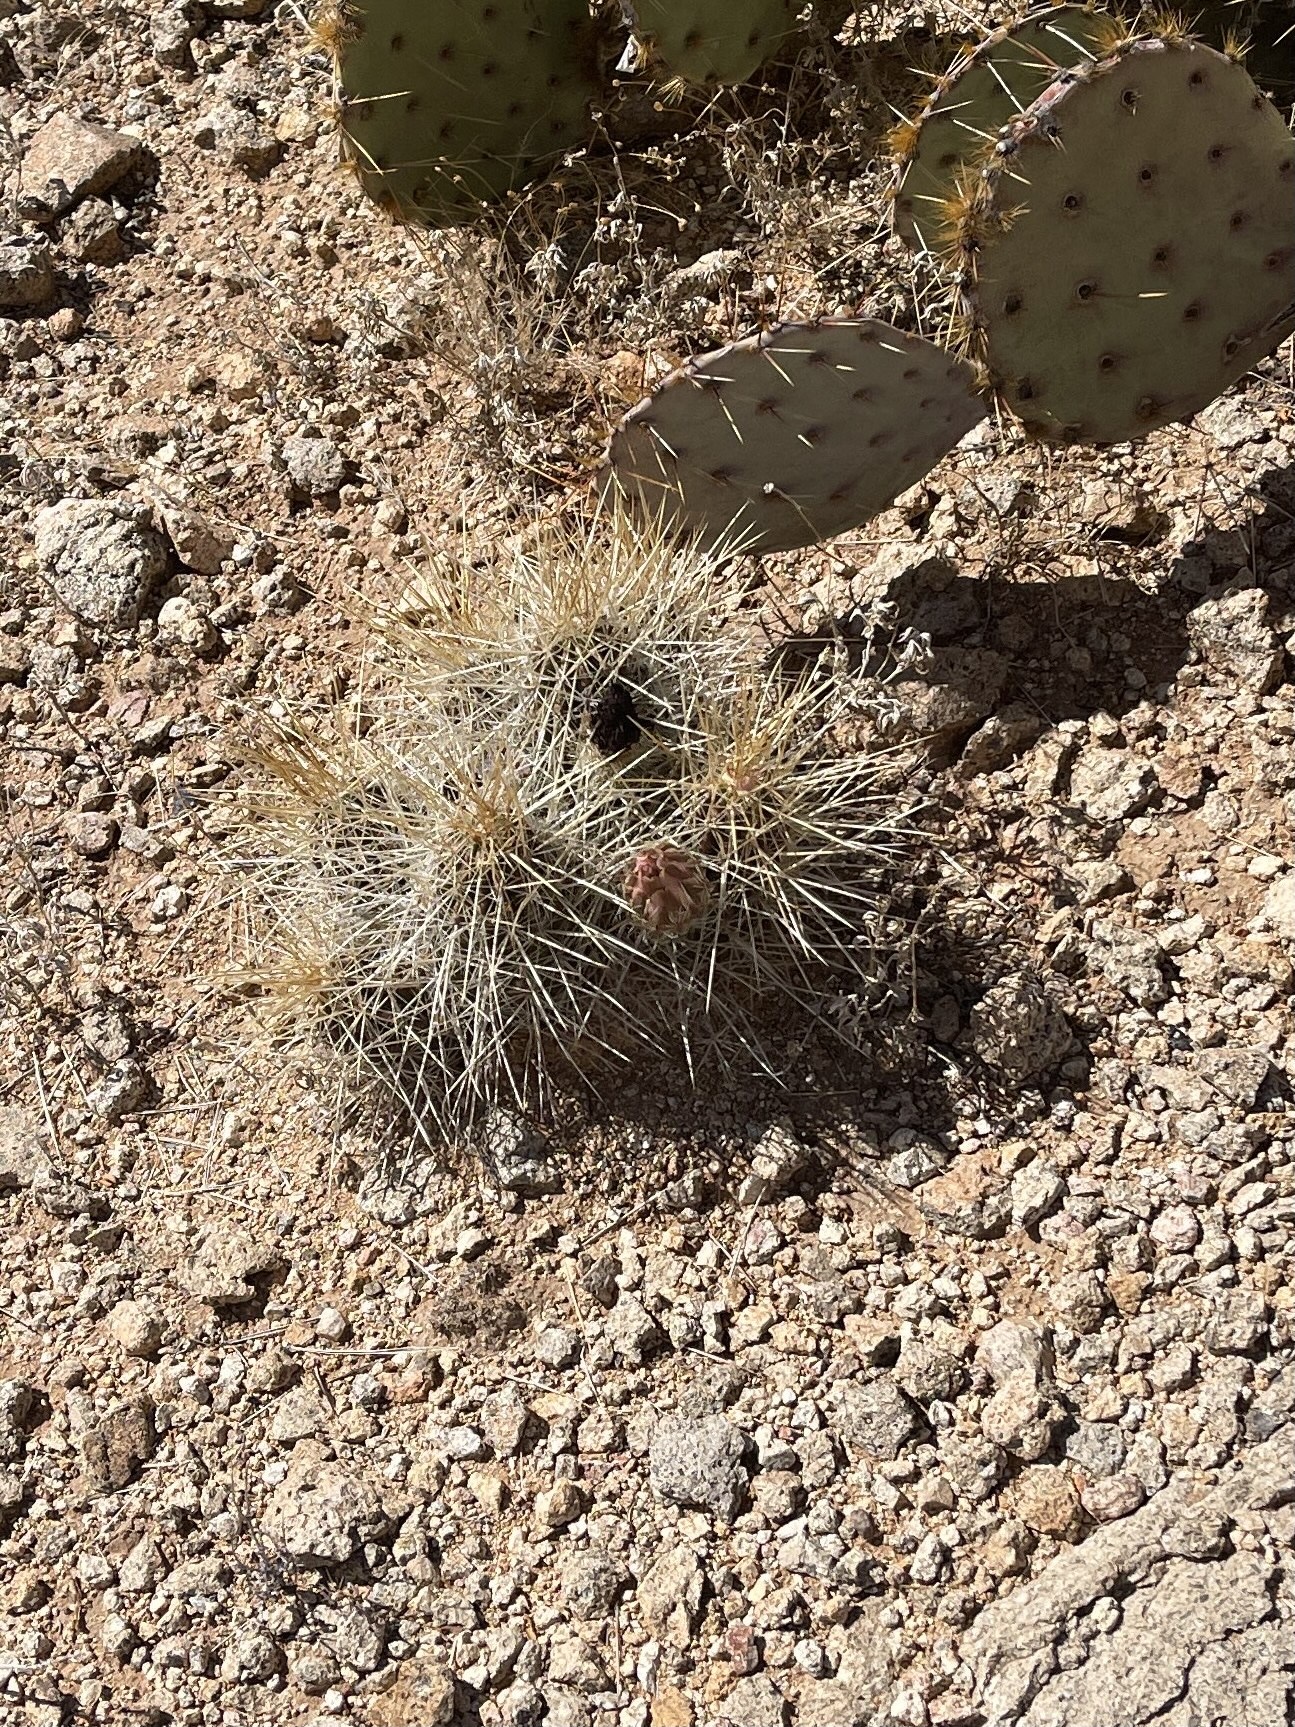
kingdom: Plantae
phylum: Tracheophyta
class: Magnoliopsida
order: Caryophyllales
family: Cactaceae
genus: Echinocereus
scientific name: Echinocereus stramineus
